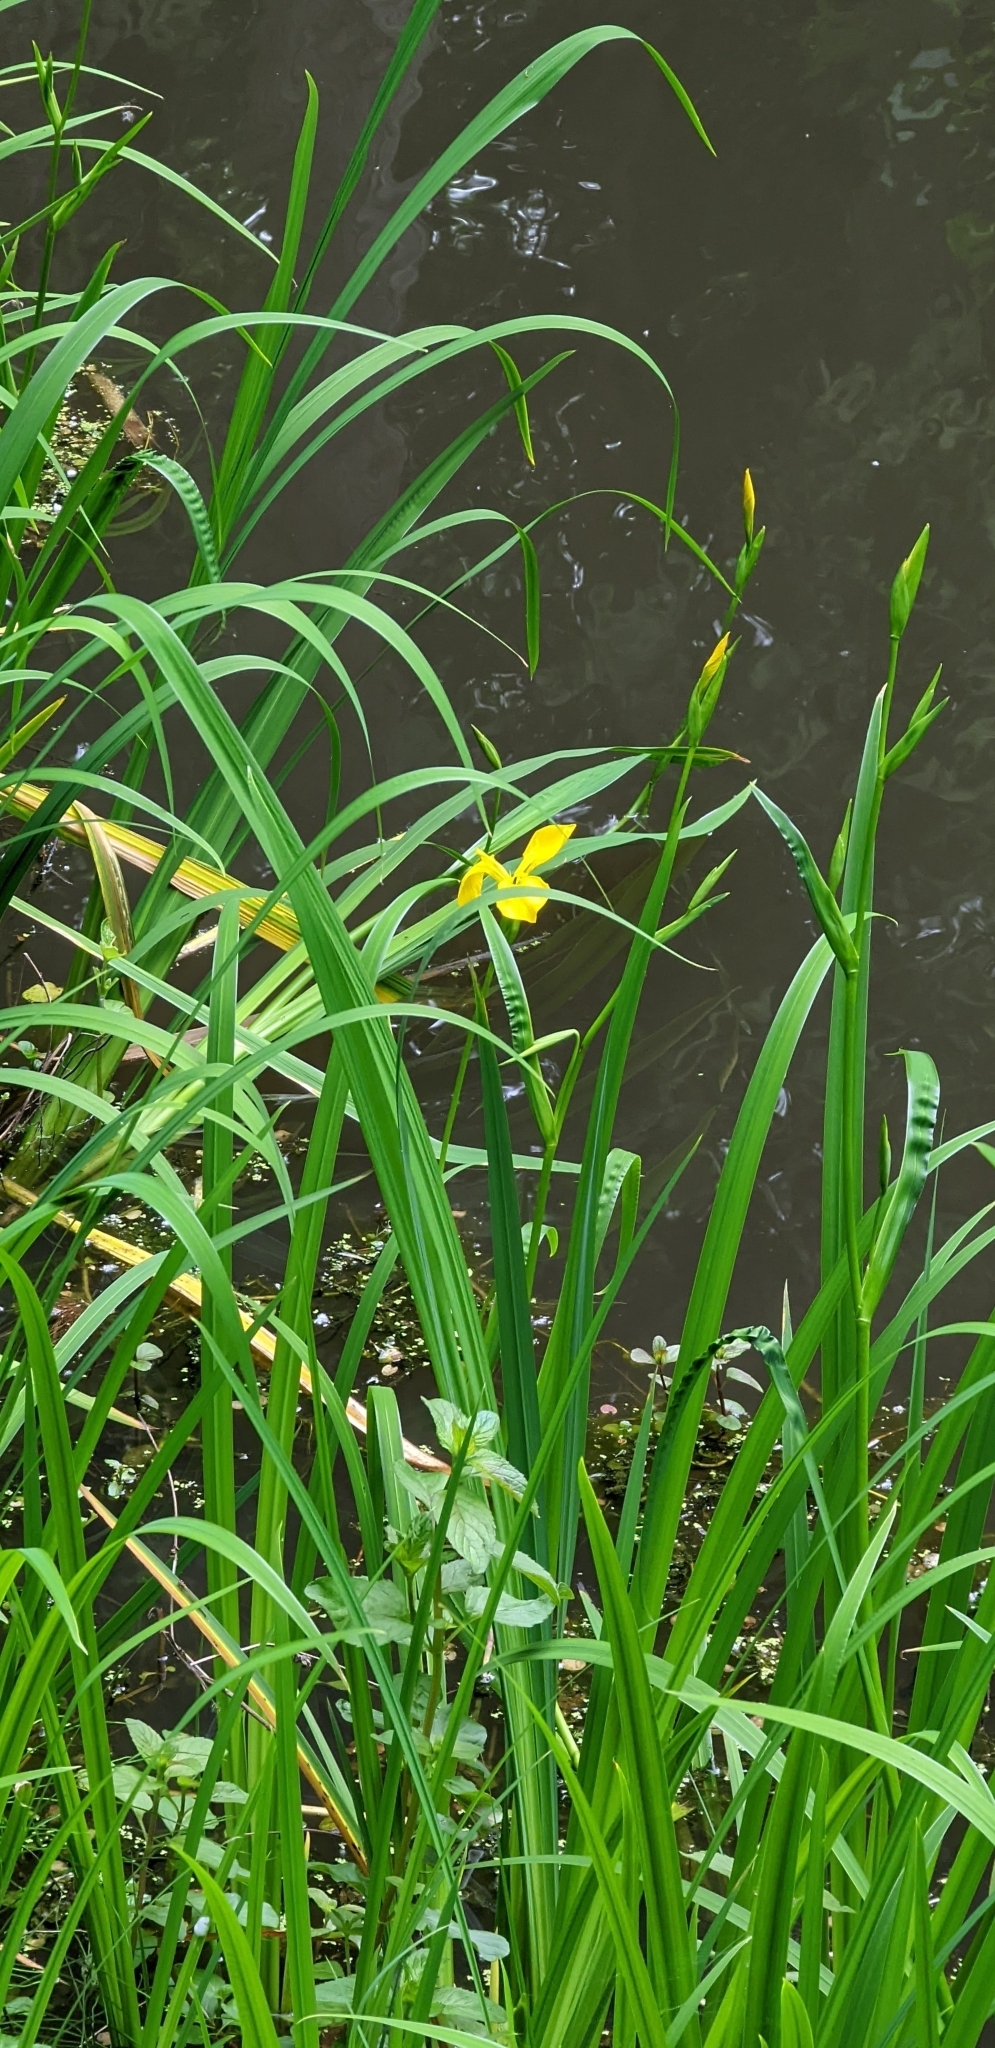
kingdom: Plantae
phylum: Tracheophyta
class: Liliopsida
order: Asparagales
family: Iridaceae
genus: Iris
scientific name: Iris pseudacorus
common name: Yellow flag
